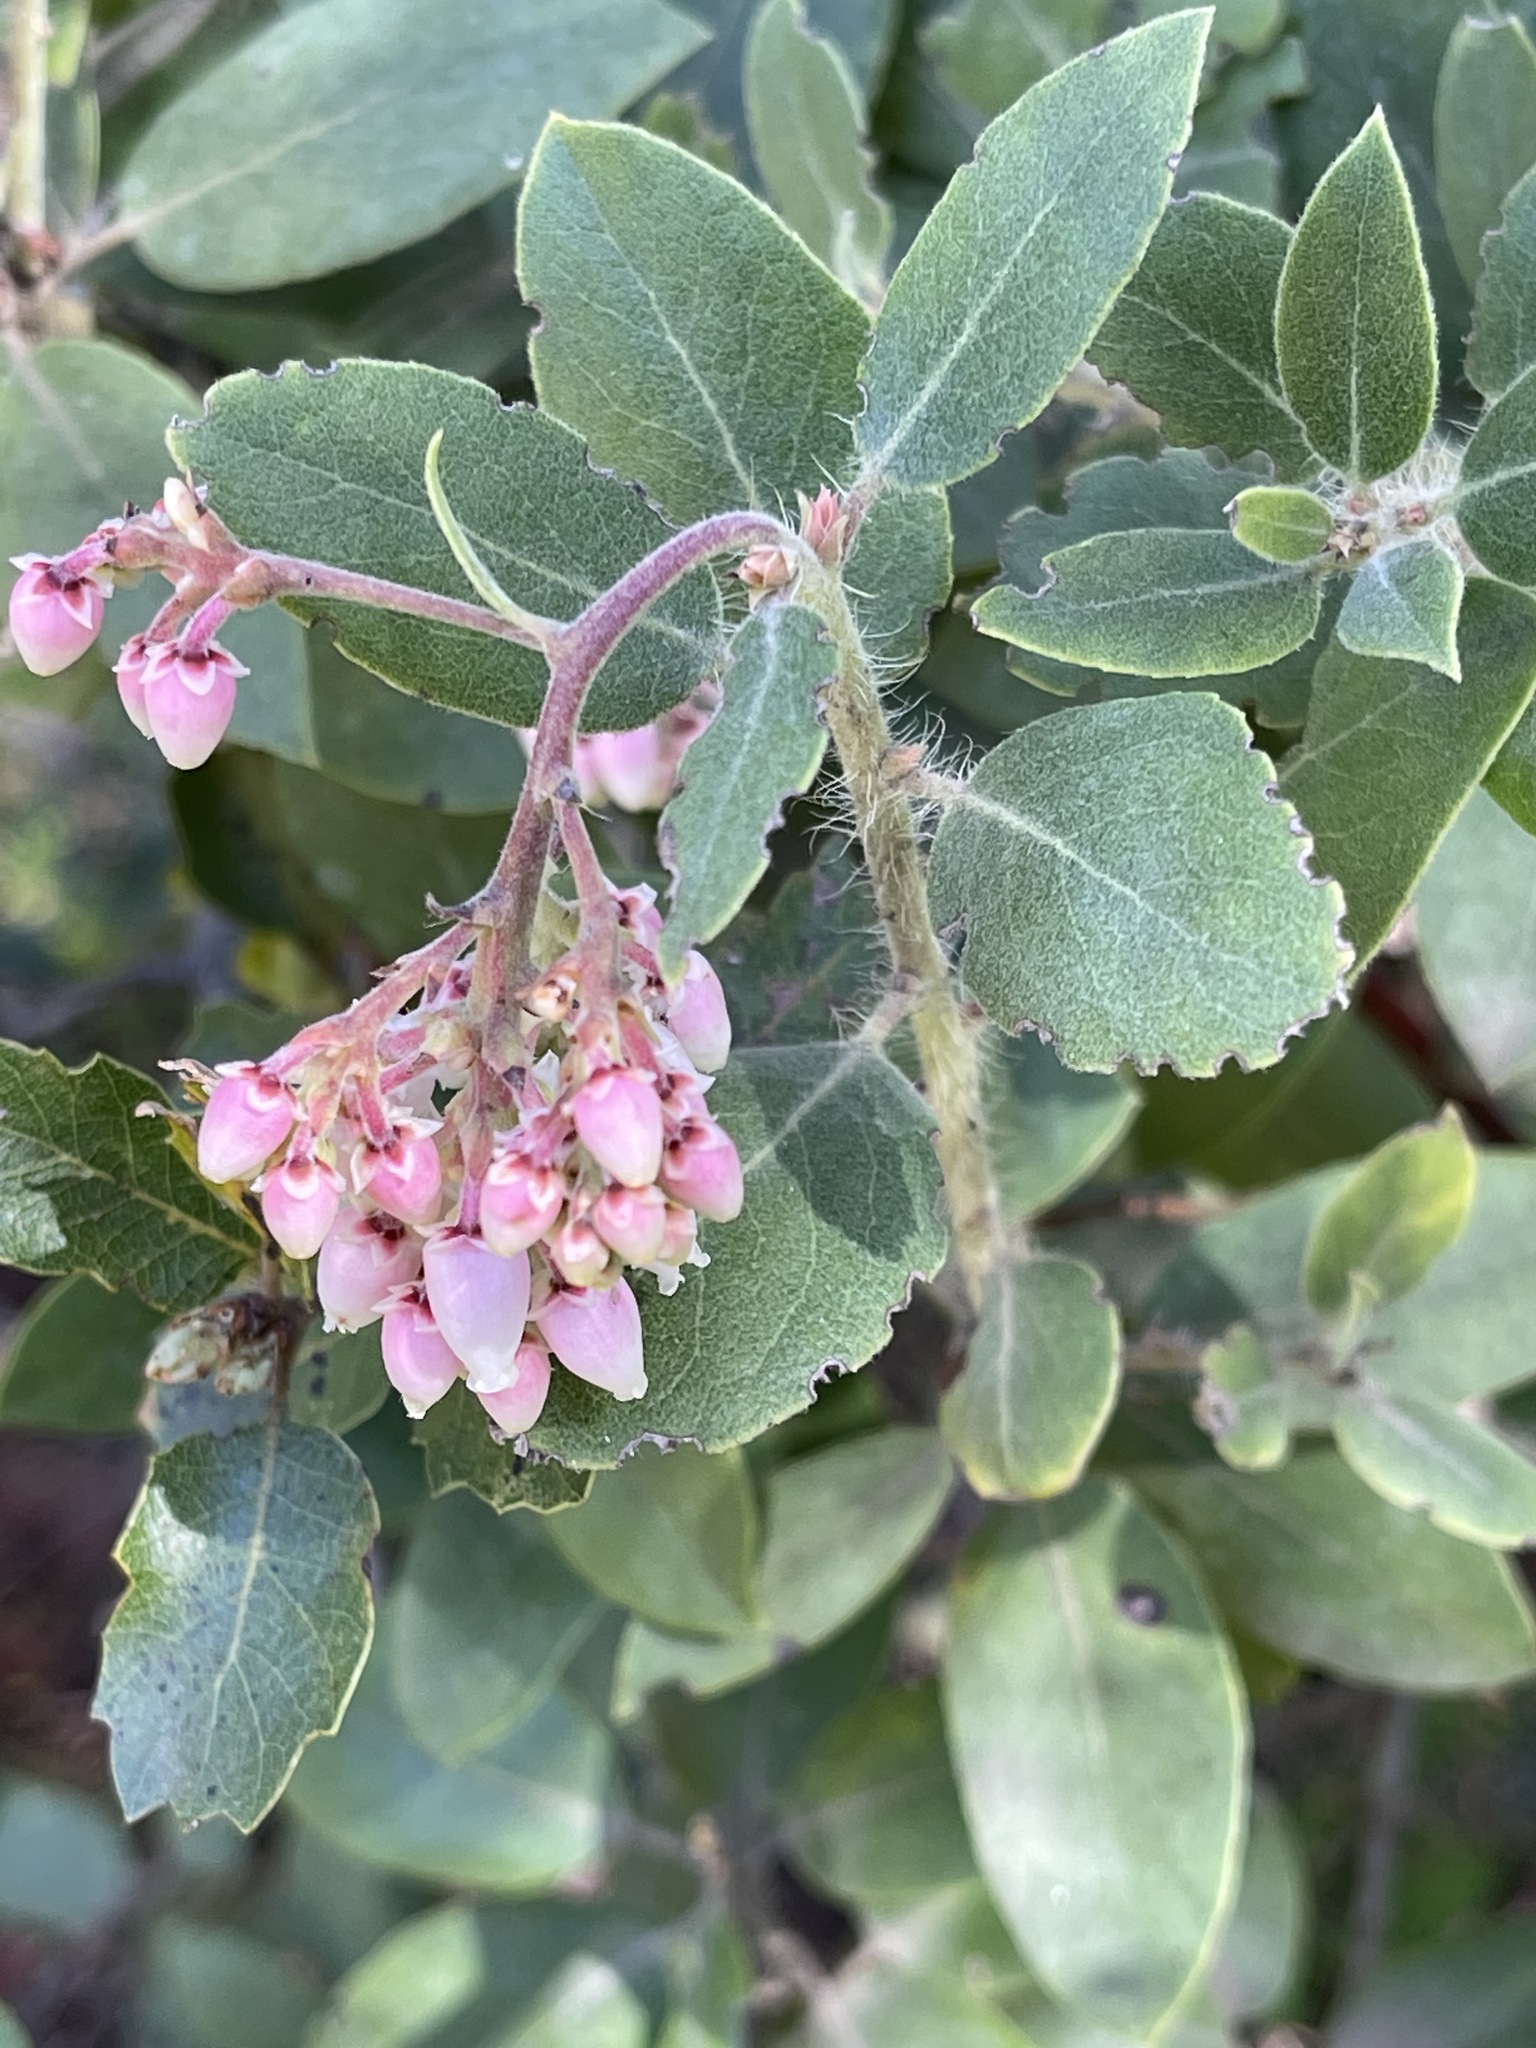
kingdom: Plantae
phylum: Tracheophyta
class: Magnoliopsida
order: Ericales
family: Ericaceae
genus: Arctostaphylos
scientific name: Arctostaphylos crustacea
